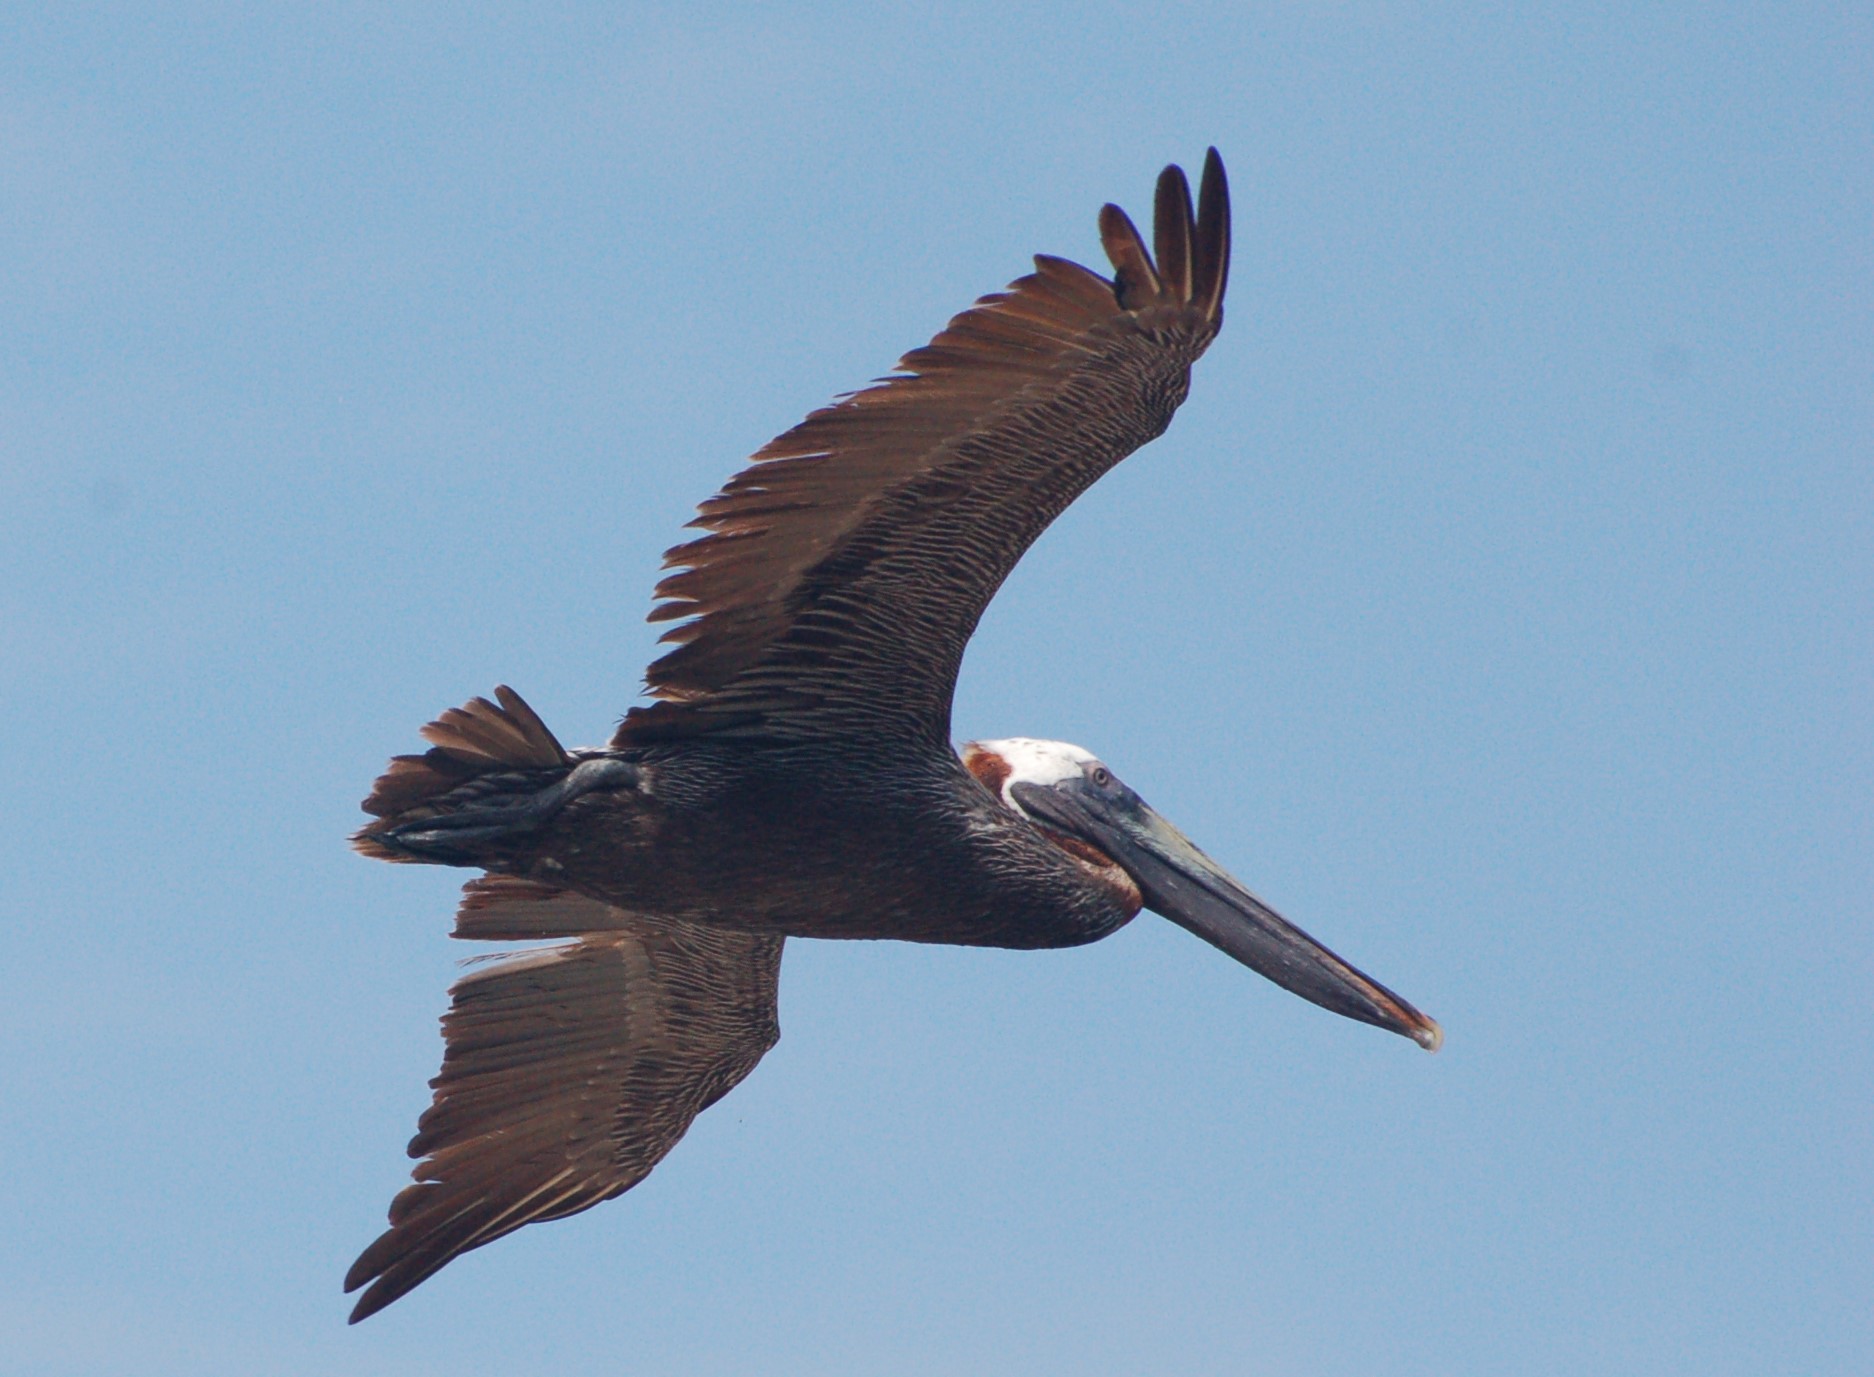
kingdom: Animalia
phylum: Chordata
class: Aves
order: Pelecaniformes
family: Pelecanidae
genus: Pelecanus
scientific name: Pelecanus occidentalis
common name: Brown pelican
